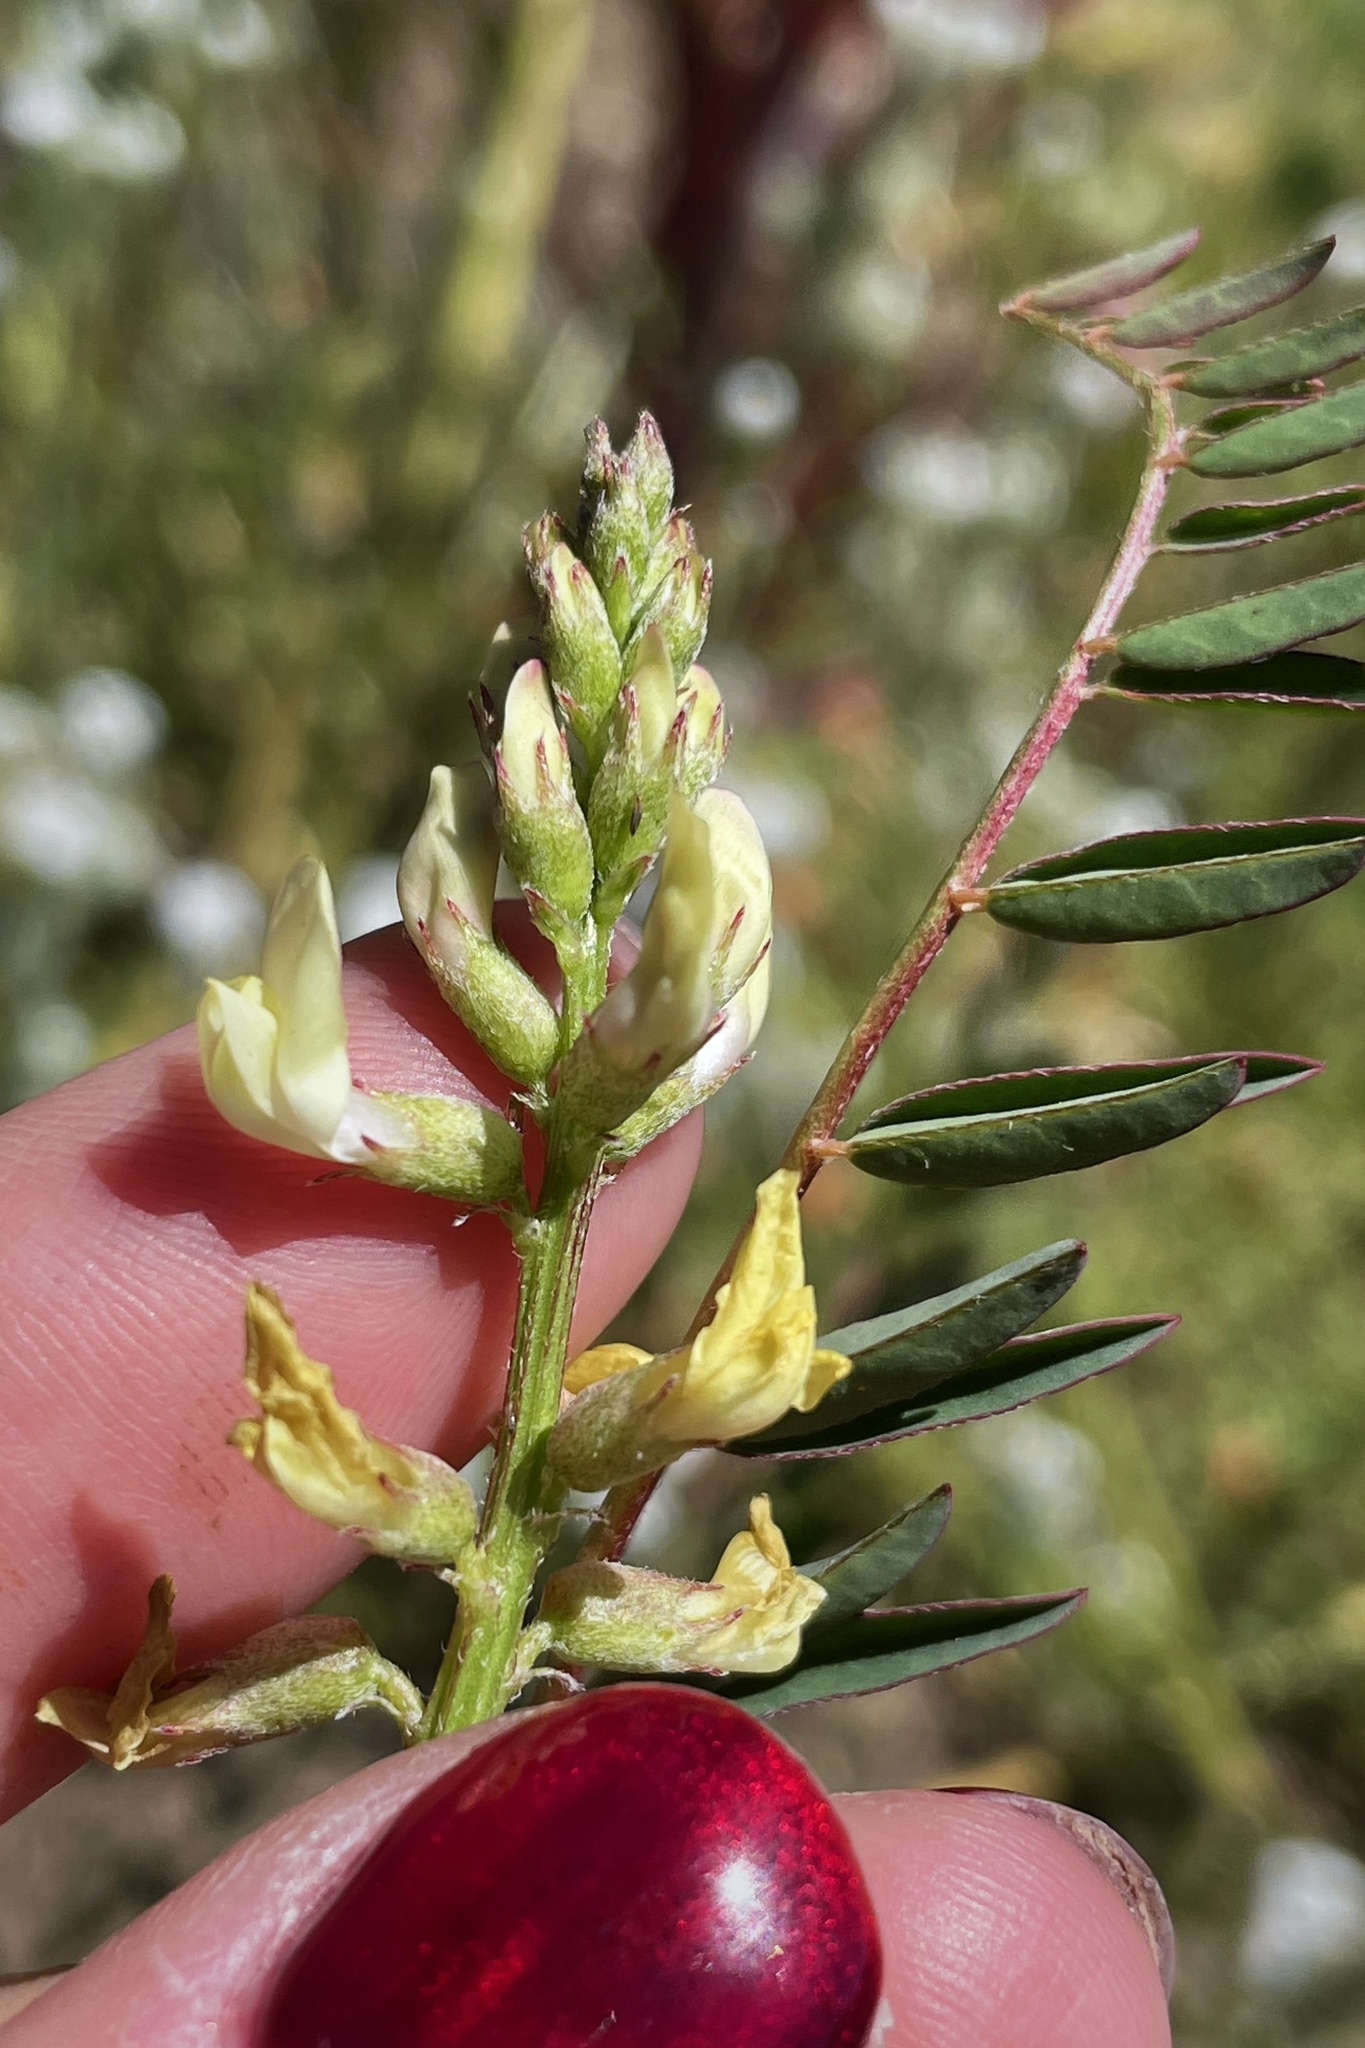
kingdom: Plantae
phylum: Tracheophyta
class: Magnoliopsida
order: Fabales
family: Fabaceae
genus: Astragalus
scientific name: Astragalus deanei
